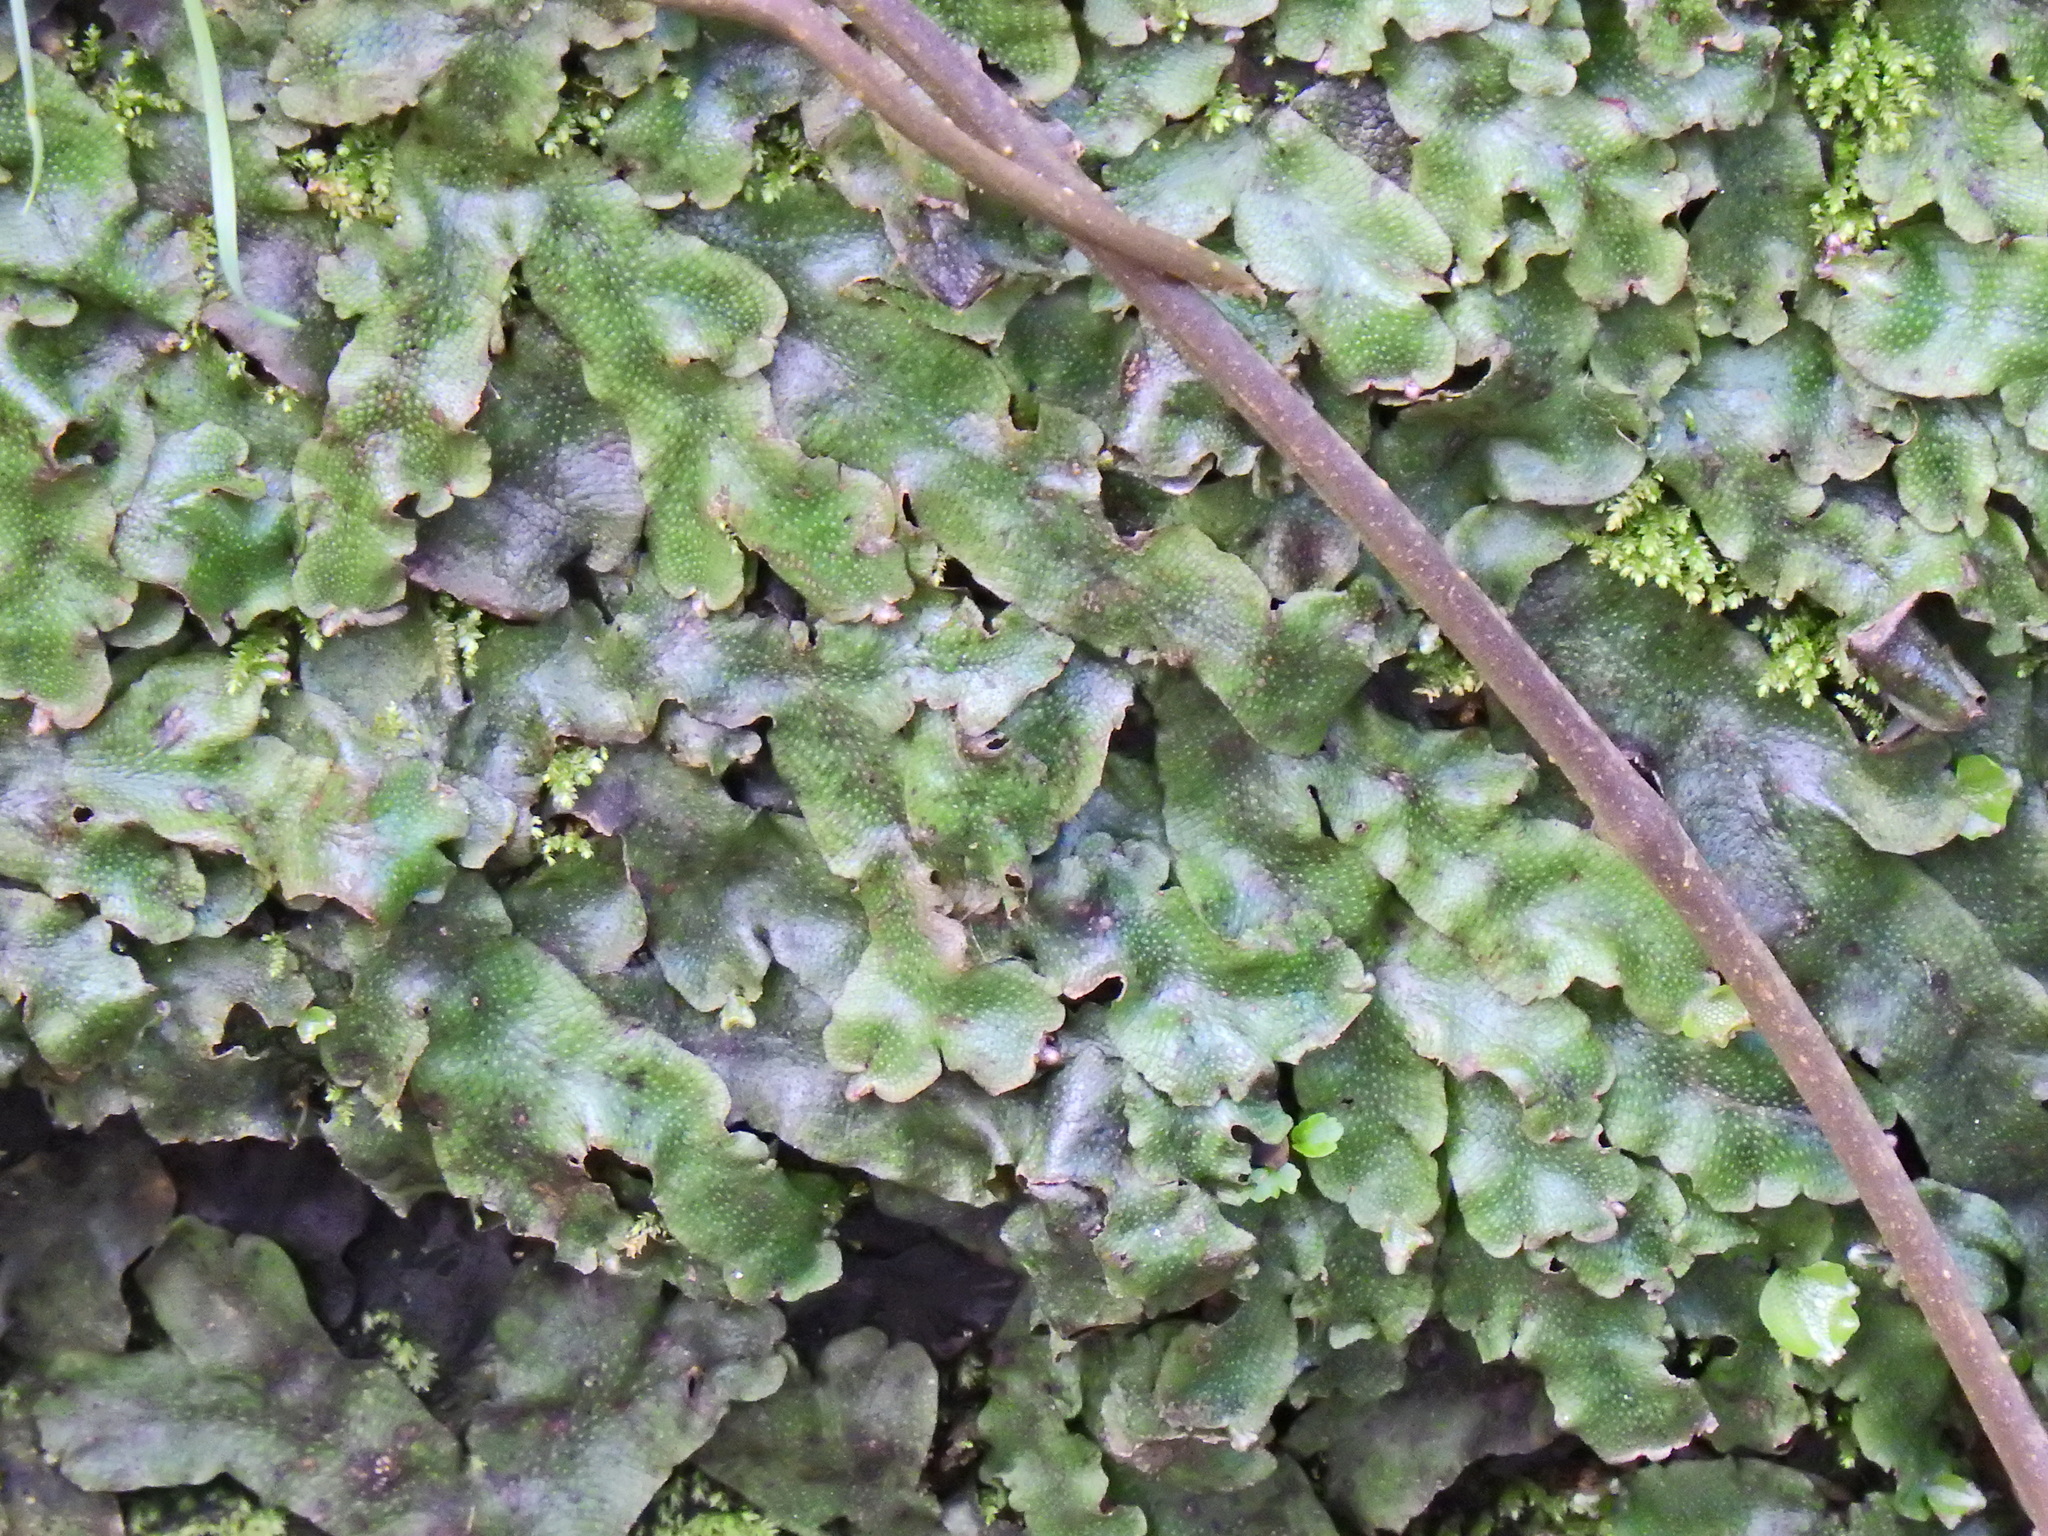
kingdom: Plantae
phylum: Marchantiophyta
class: Marchantiopsida
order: Marchantiales
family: Conocephalaceae
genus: Conocephalum
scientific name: Conocephalum conicum
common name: Great scented liverwort
